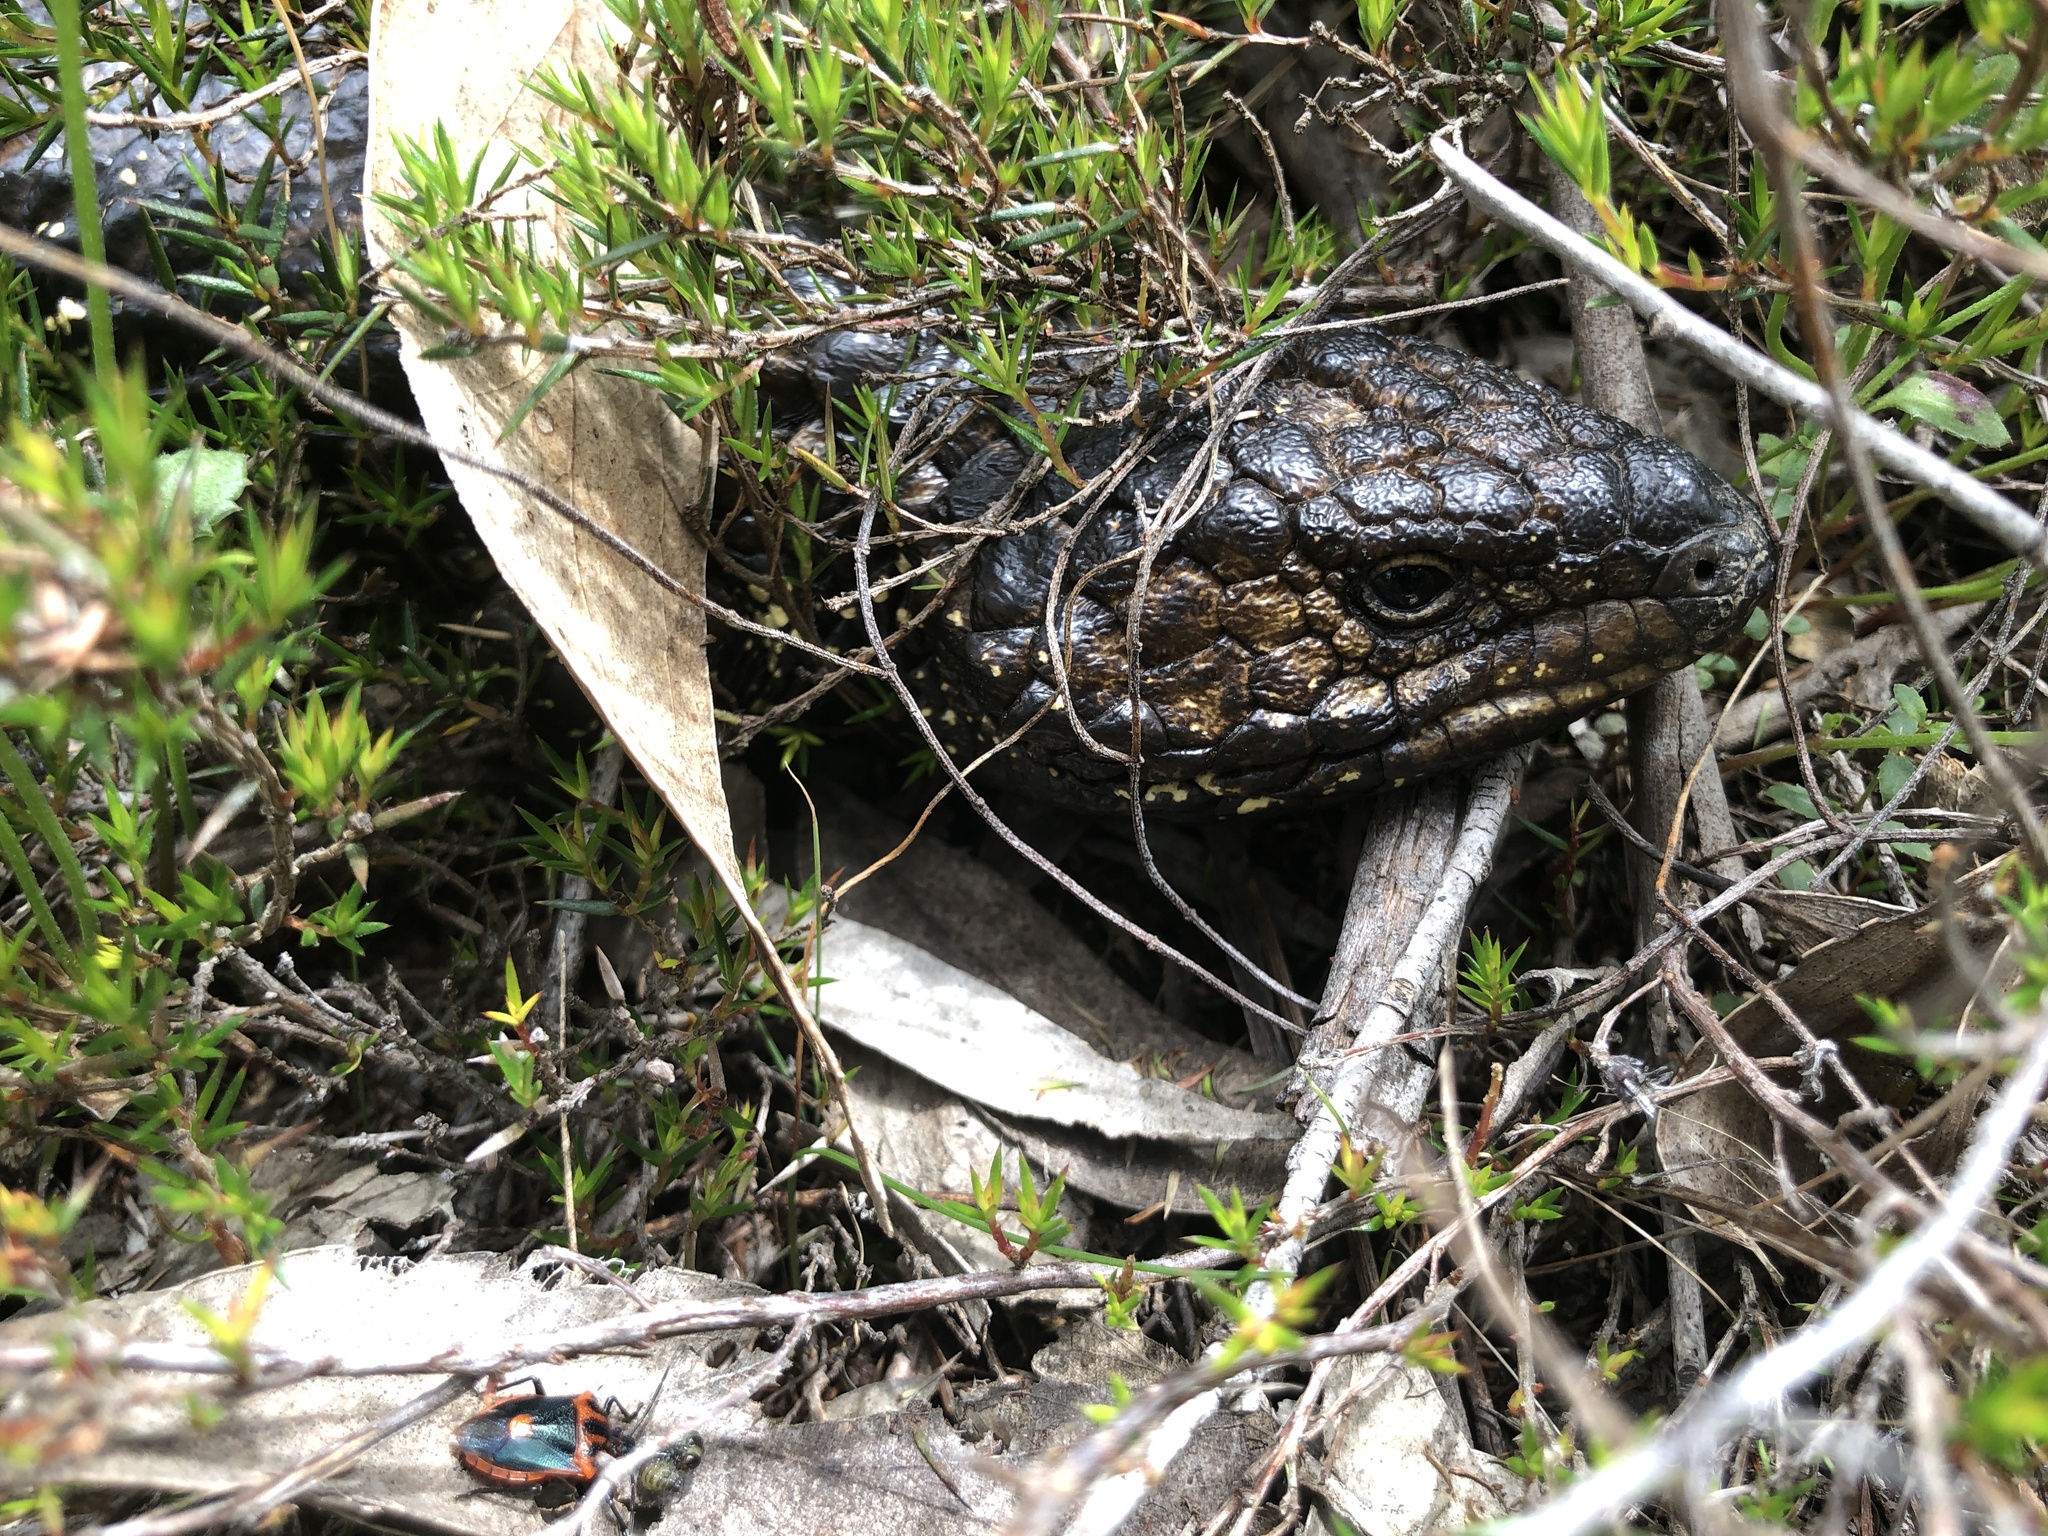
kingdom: Animalia
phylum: Chordata
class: Squamata
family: Scincidae
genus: Tiliqua
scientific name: Tiliqua rugosa
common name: Pinecone lizard
